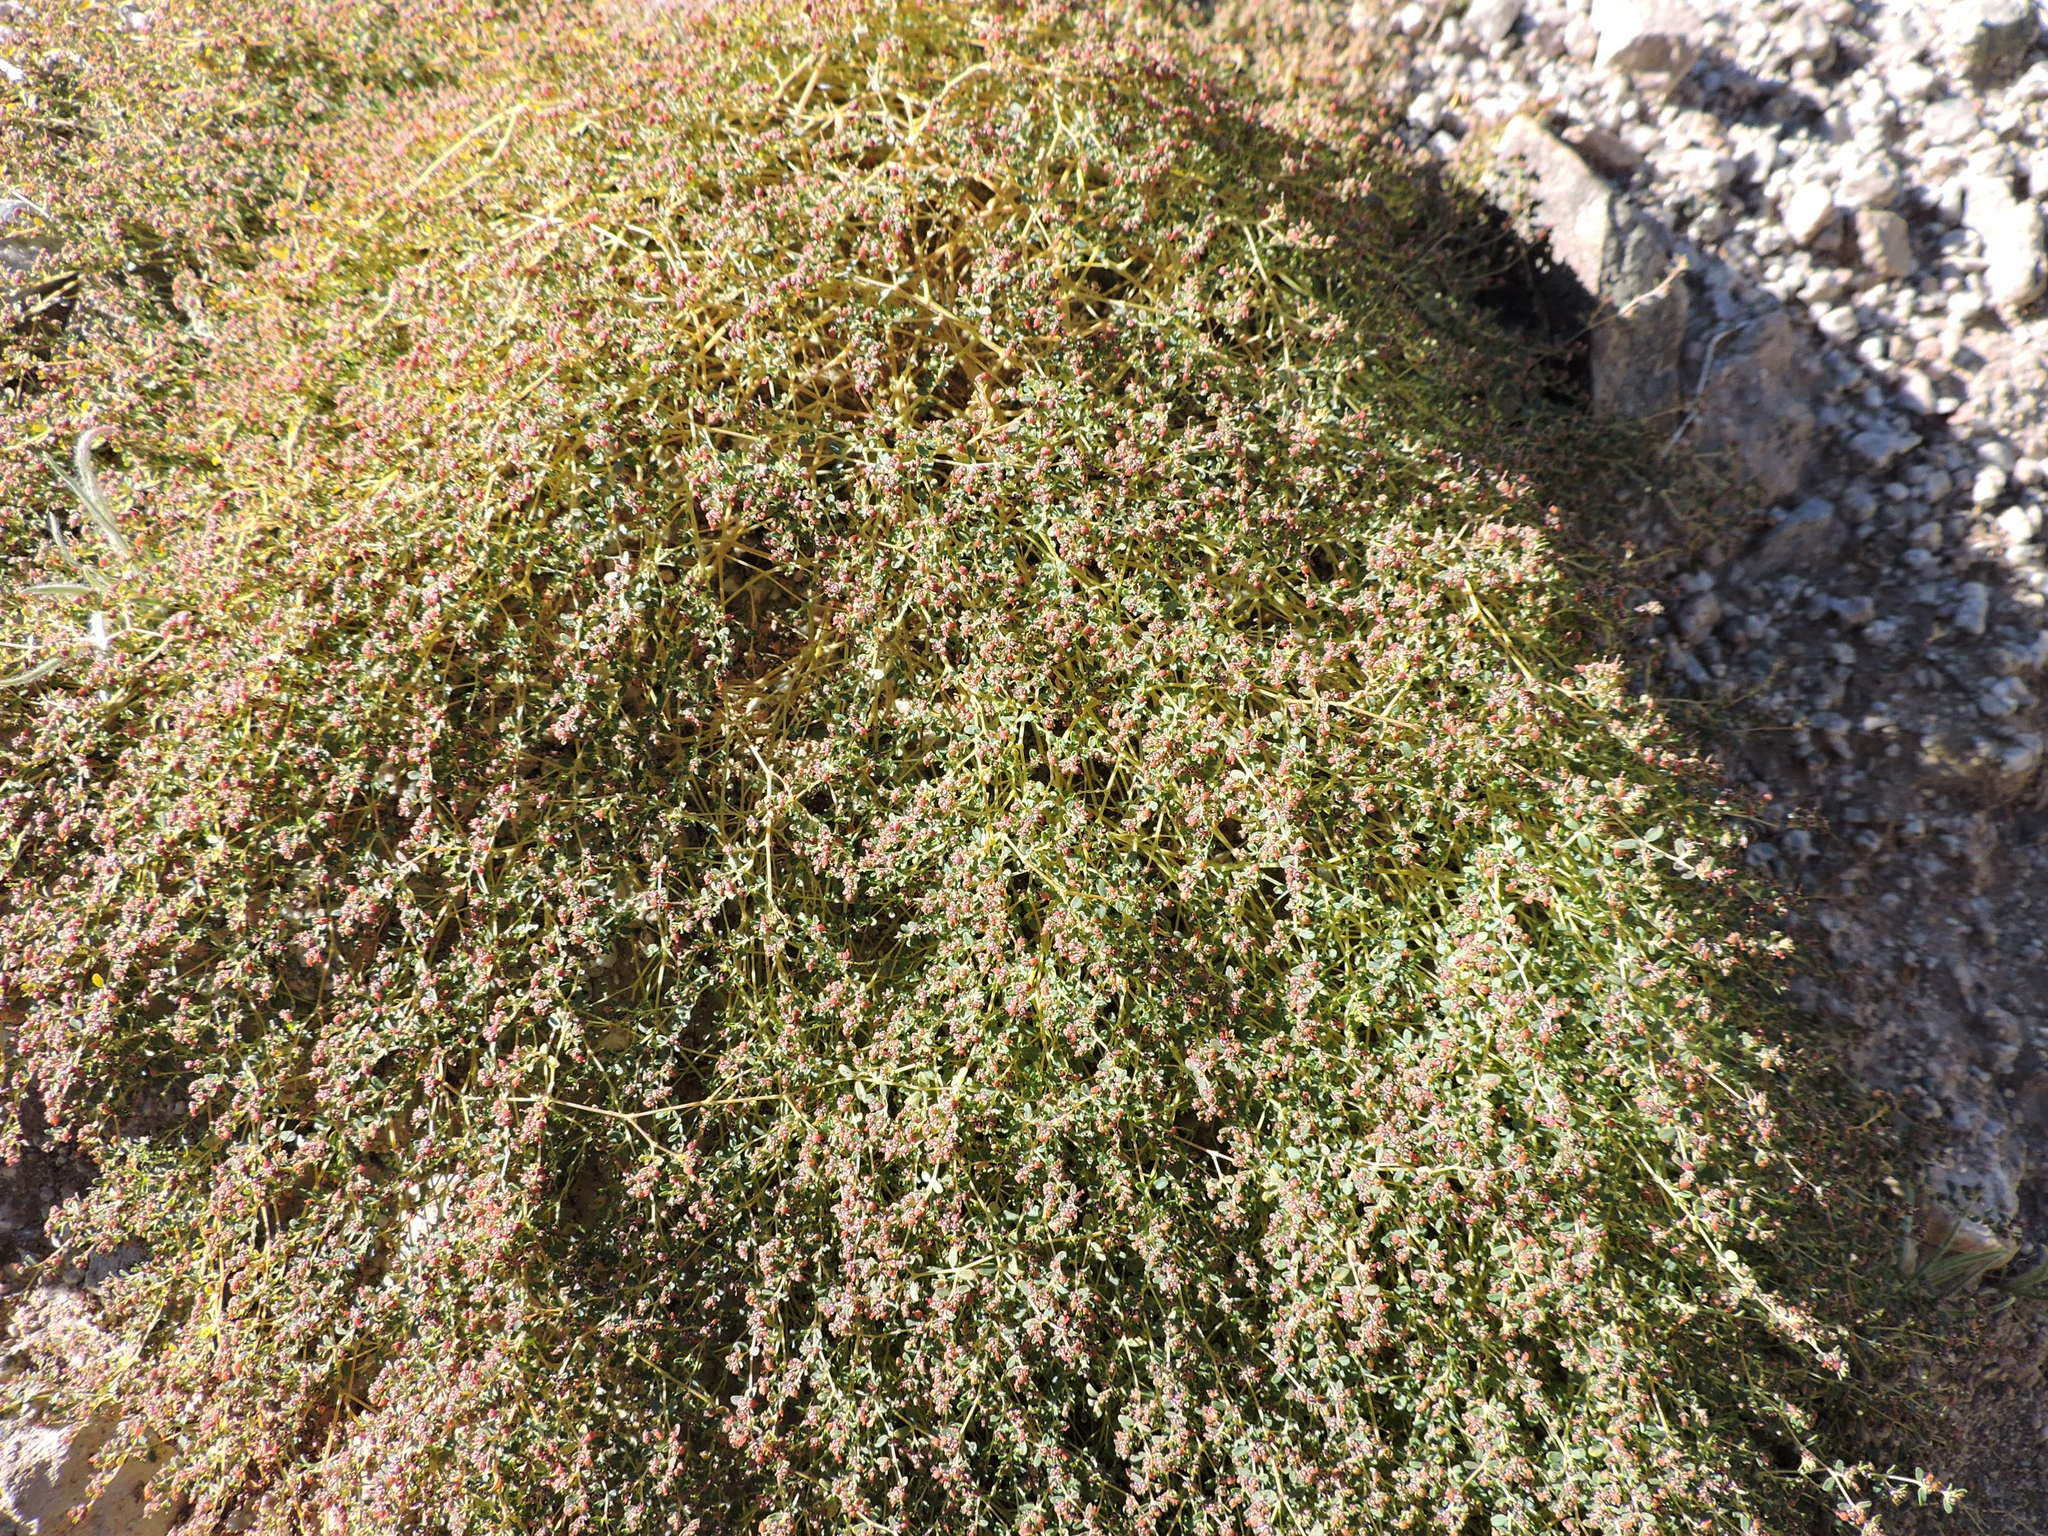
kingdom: Plantae
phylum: Tracheophyta
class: Magnoliopsida
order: Malpighiales
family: Euphorbiaceae
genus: Euphorbia
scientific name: Euphorbia polycarpa
